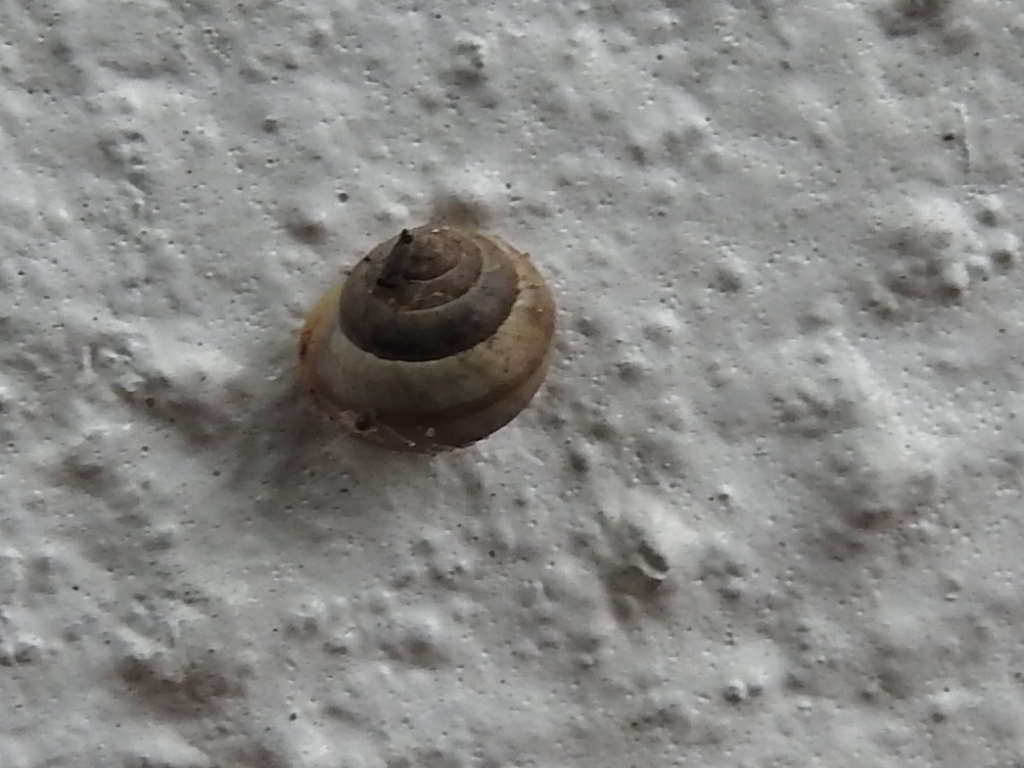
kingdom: Animalia
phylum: Mollusca
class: Gastropoda
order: Cycloneritida
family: Helicinidae
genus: Helicina
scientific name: Helicina orbiculata
